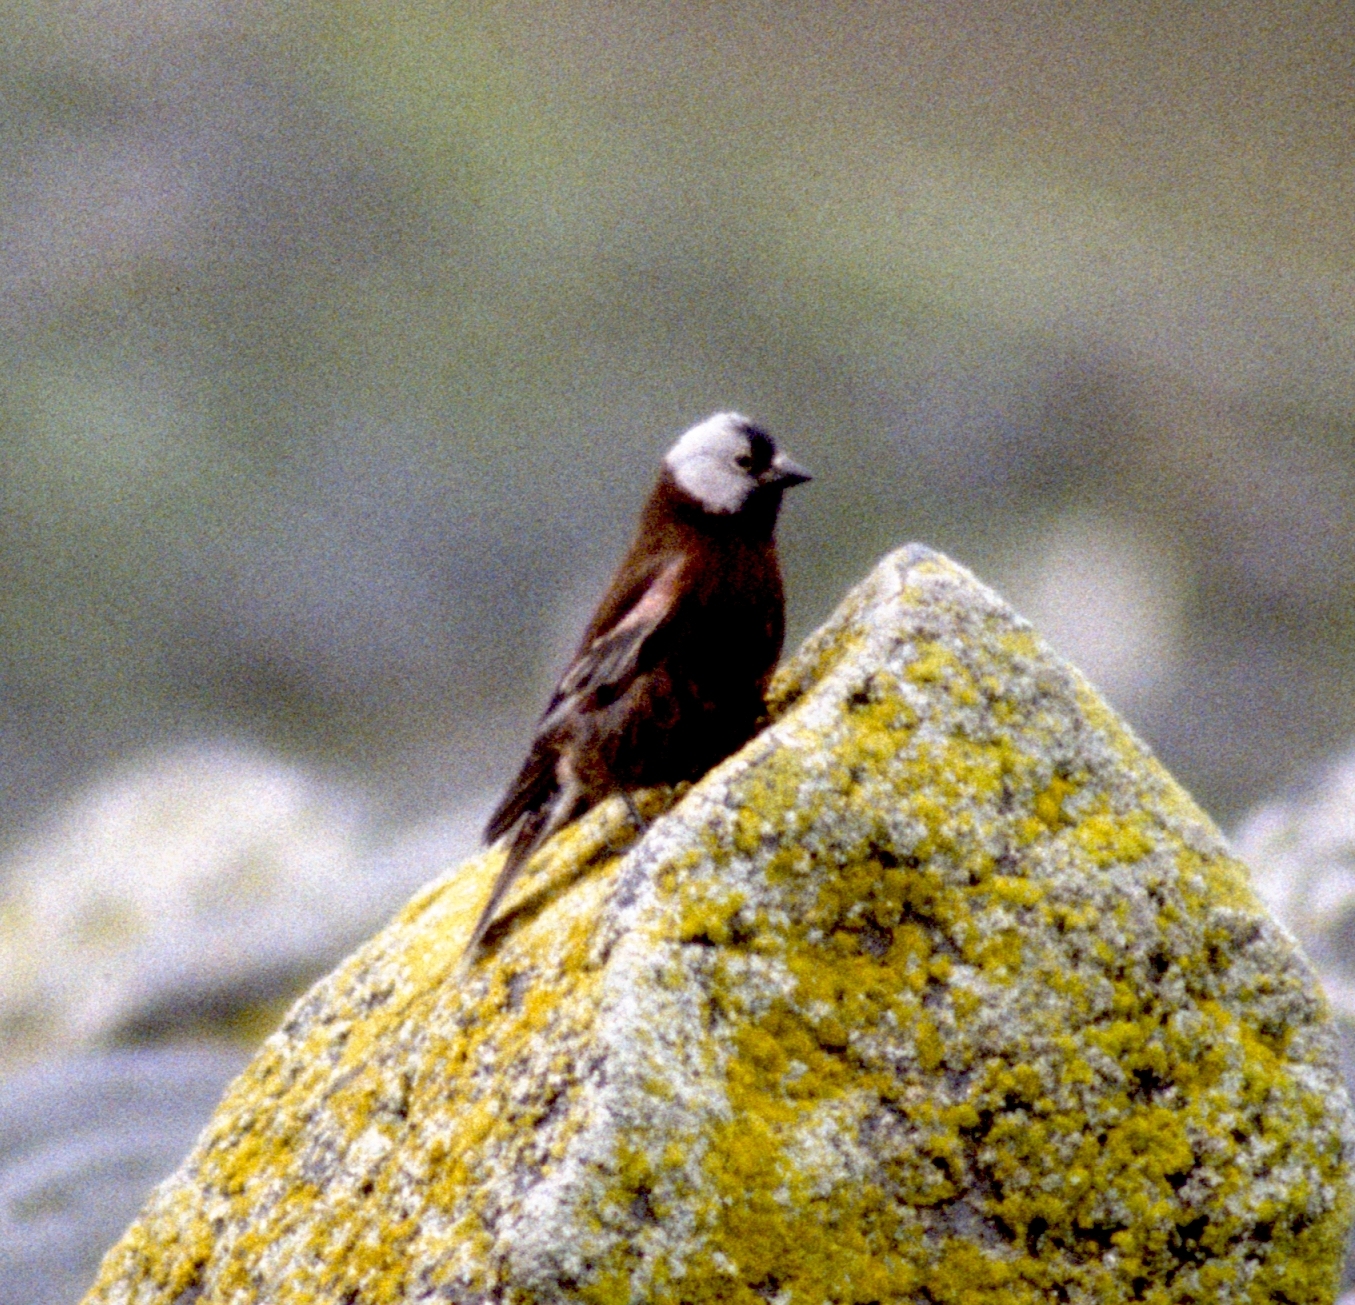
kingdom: Animalia
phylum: Chordata
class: Aves
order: Passeriformes
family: Fringillidae
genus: Leucosticte
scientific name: Leucosticte tephrocotis
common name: Gray-crowned rosy-finch
